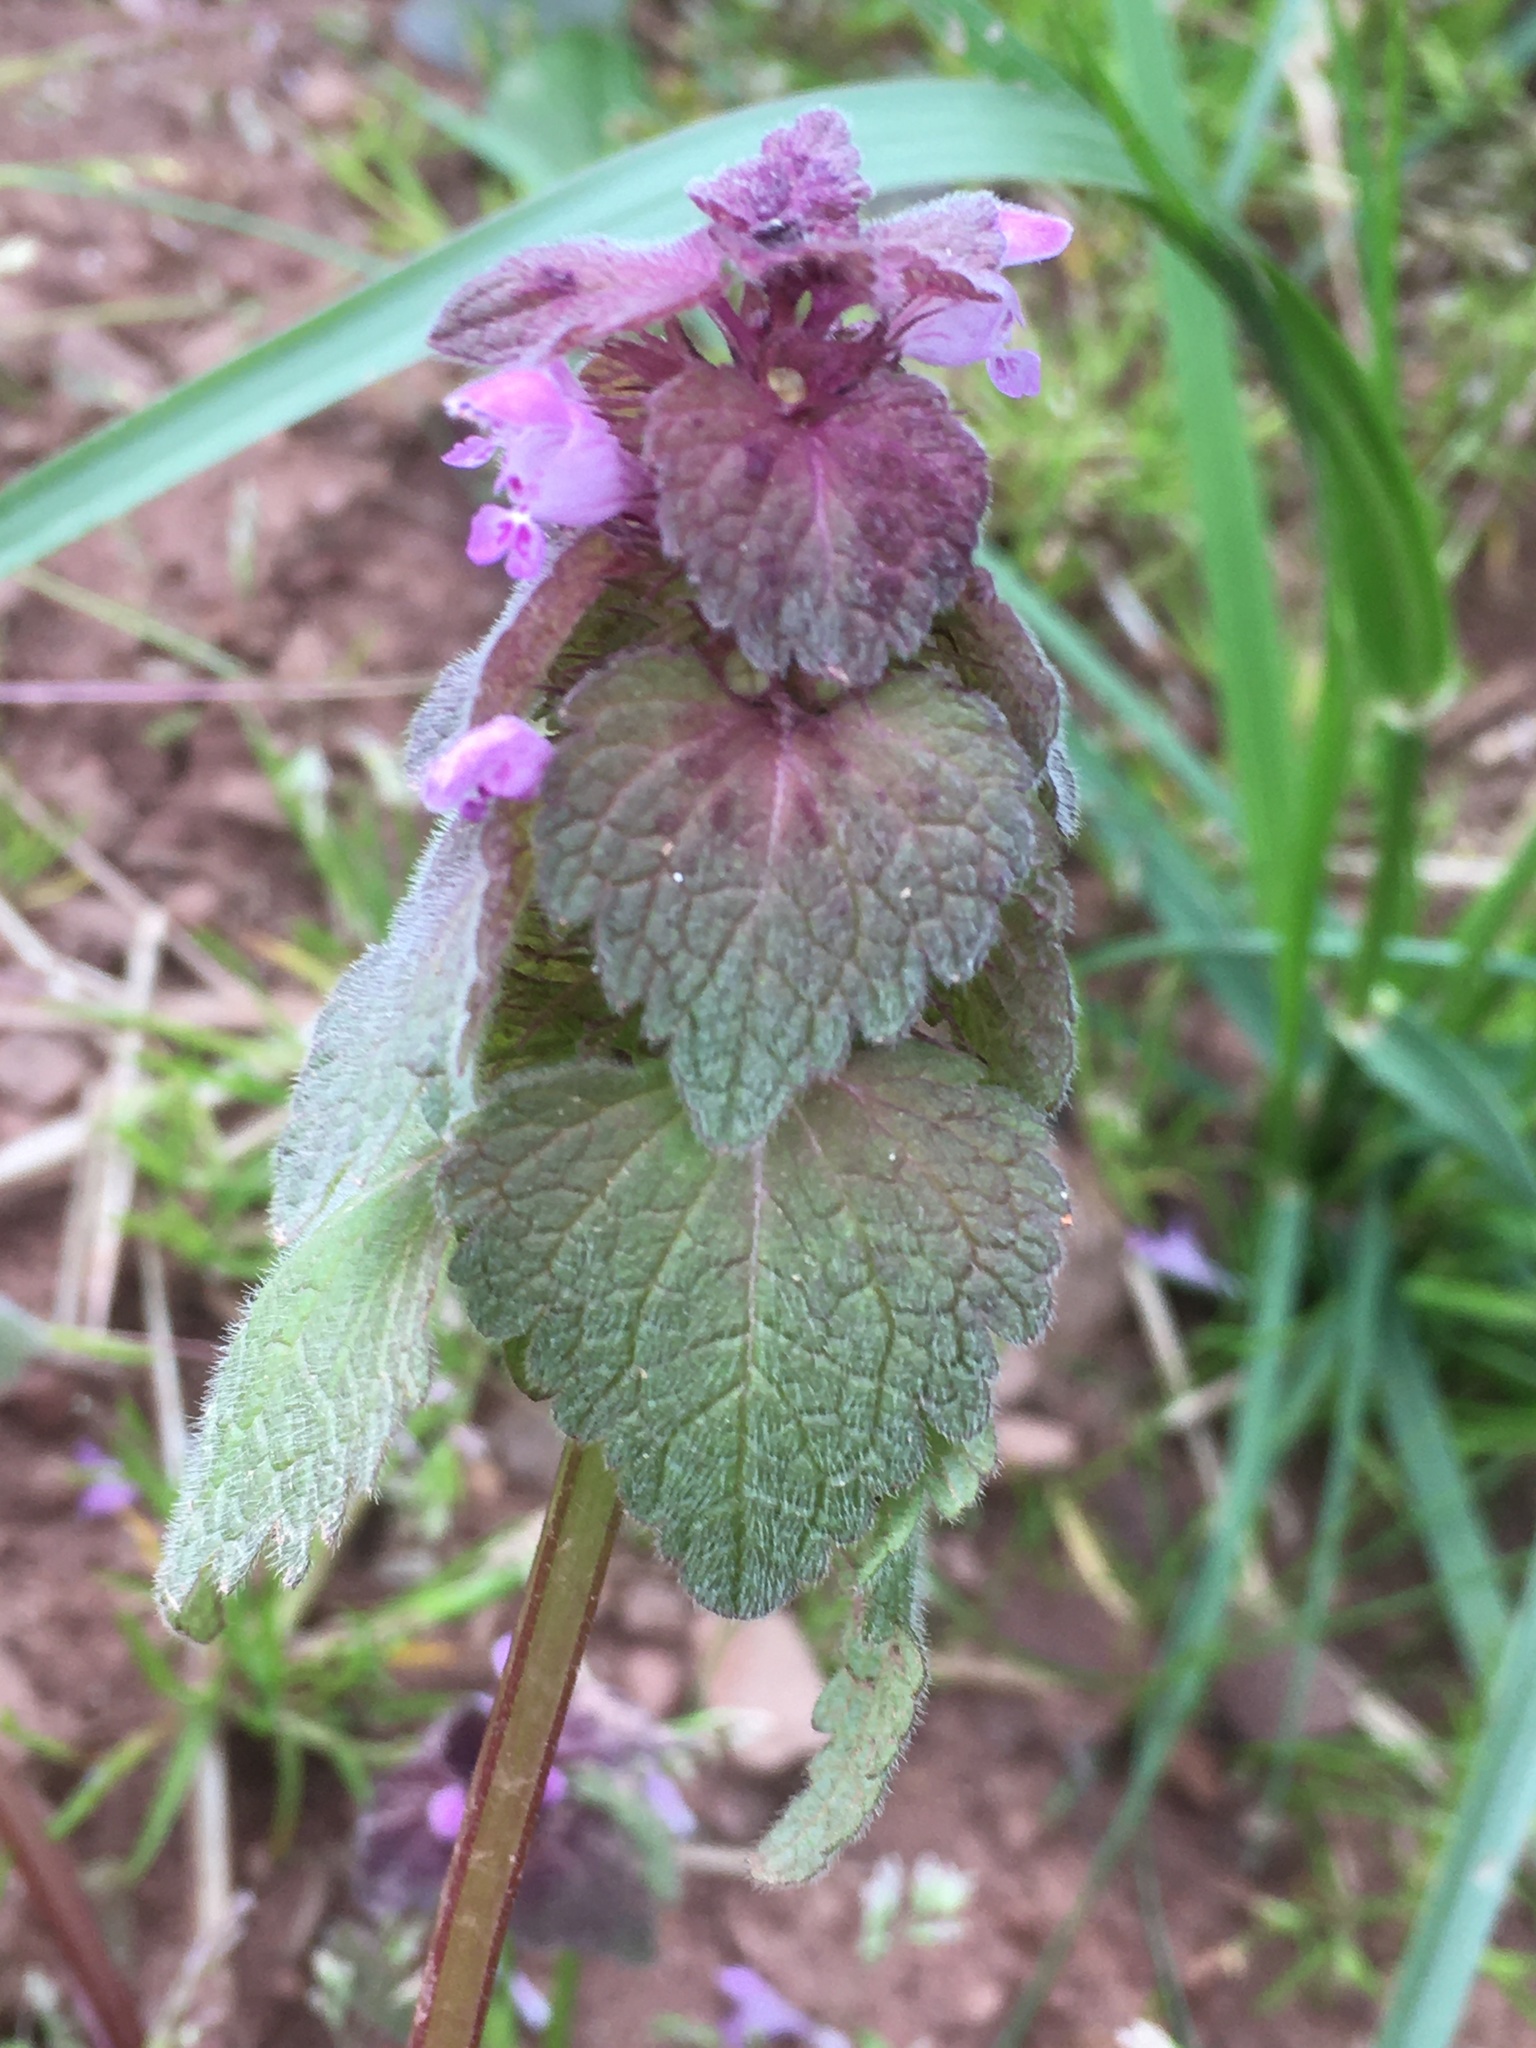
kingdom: Plantae
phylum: Tracheophyta
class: Magnoliopsida
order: Lamiales
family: Lamiaceae
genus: Lamium
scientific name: Lamium purpureum
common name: Red dead-nettle
